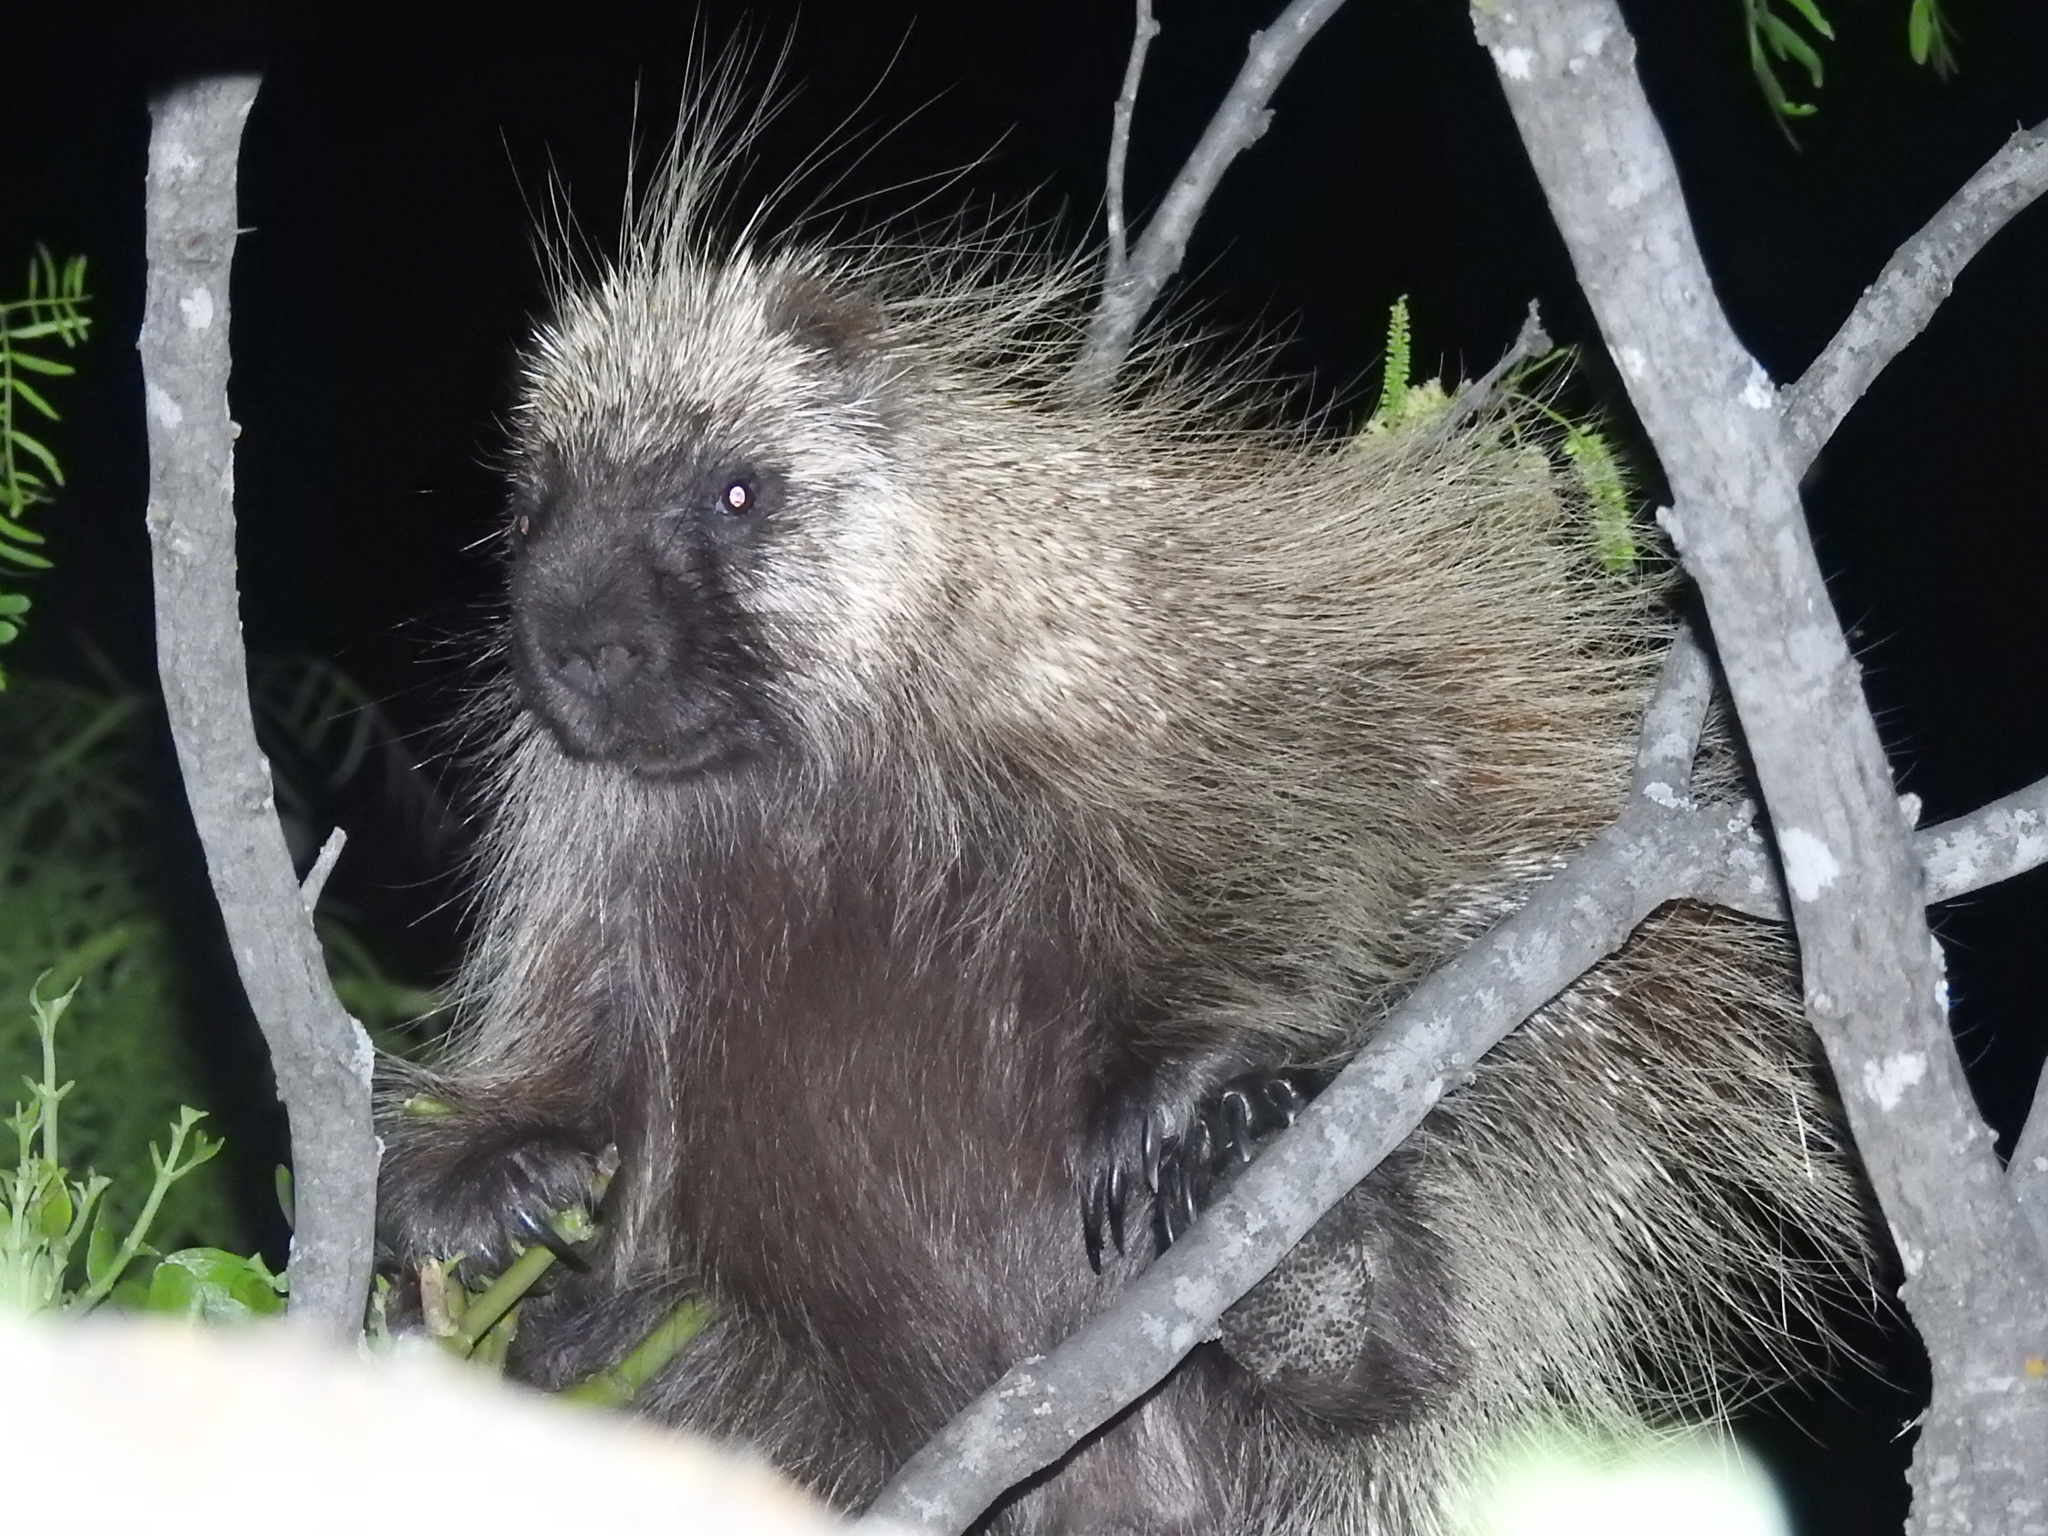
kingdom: Animalia
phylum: Chordata
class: Mammalia
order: Rodentia
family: Erethizontidae
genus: Erethizon
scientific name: Erethizon dorsatus
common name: North american porcupine
